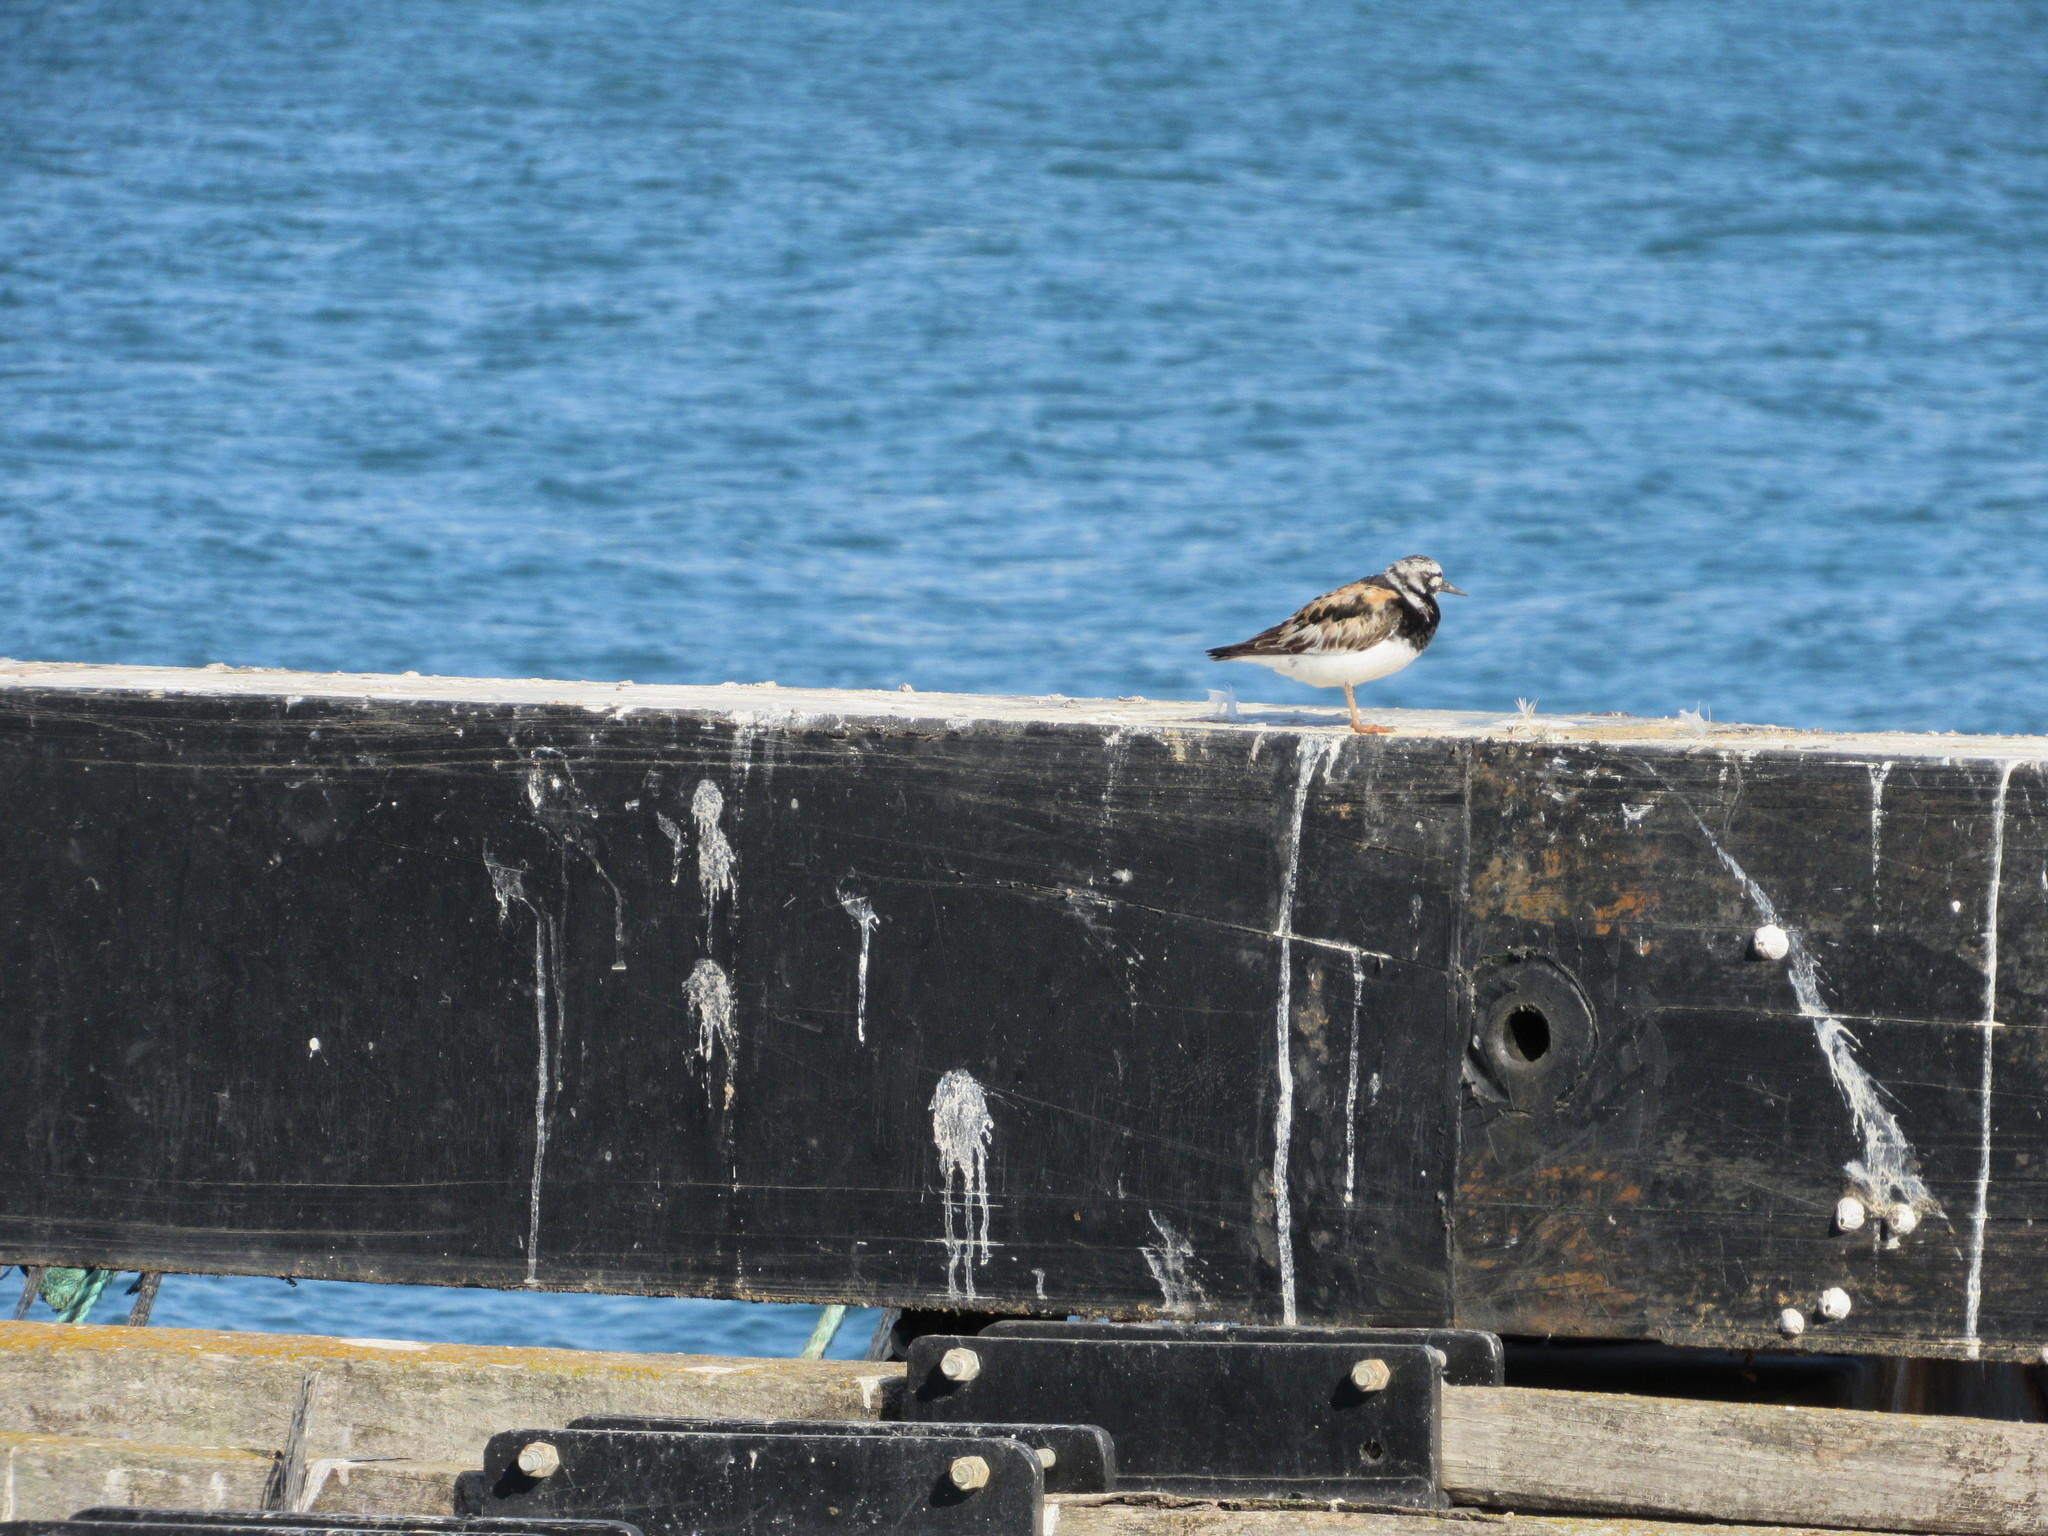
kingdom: Animalia
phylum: Chordata
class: Aves
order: Charadriiformes
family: Scolopacidae
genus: Arenaria
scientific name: Arenaria interpres
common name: Ruddy turnstone
